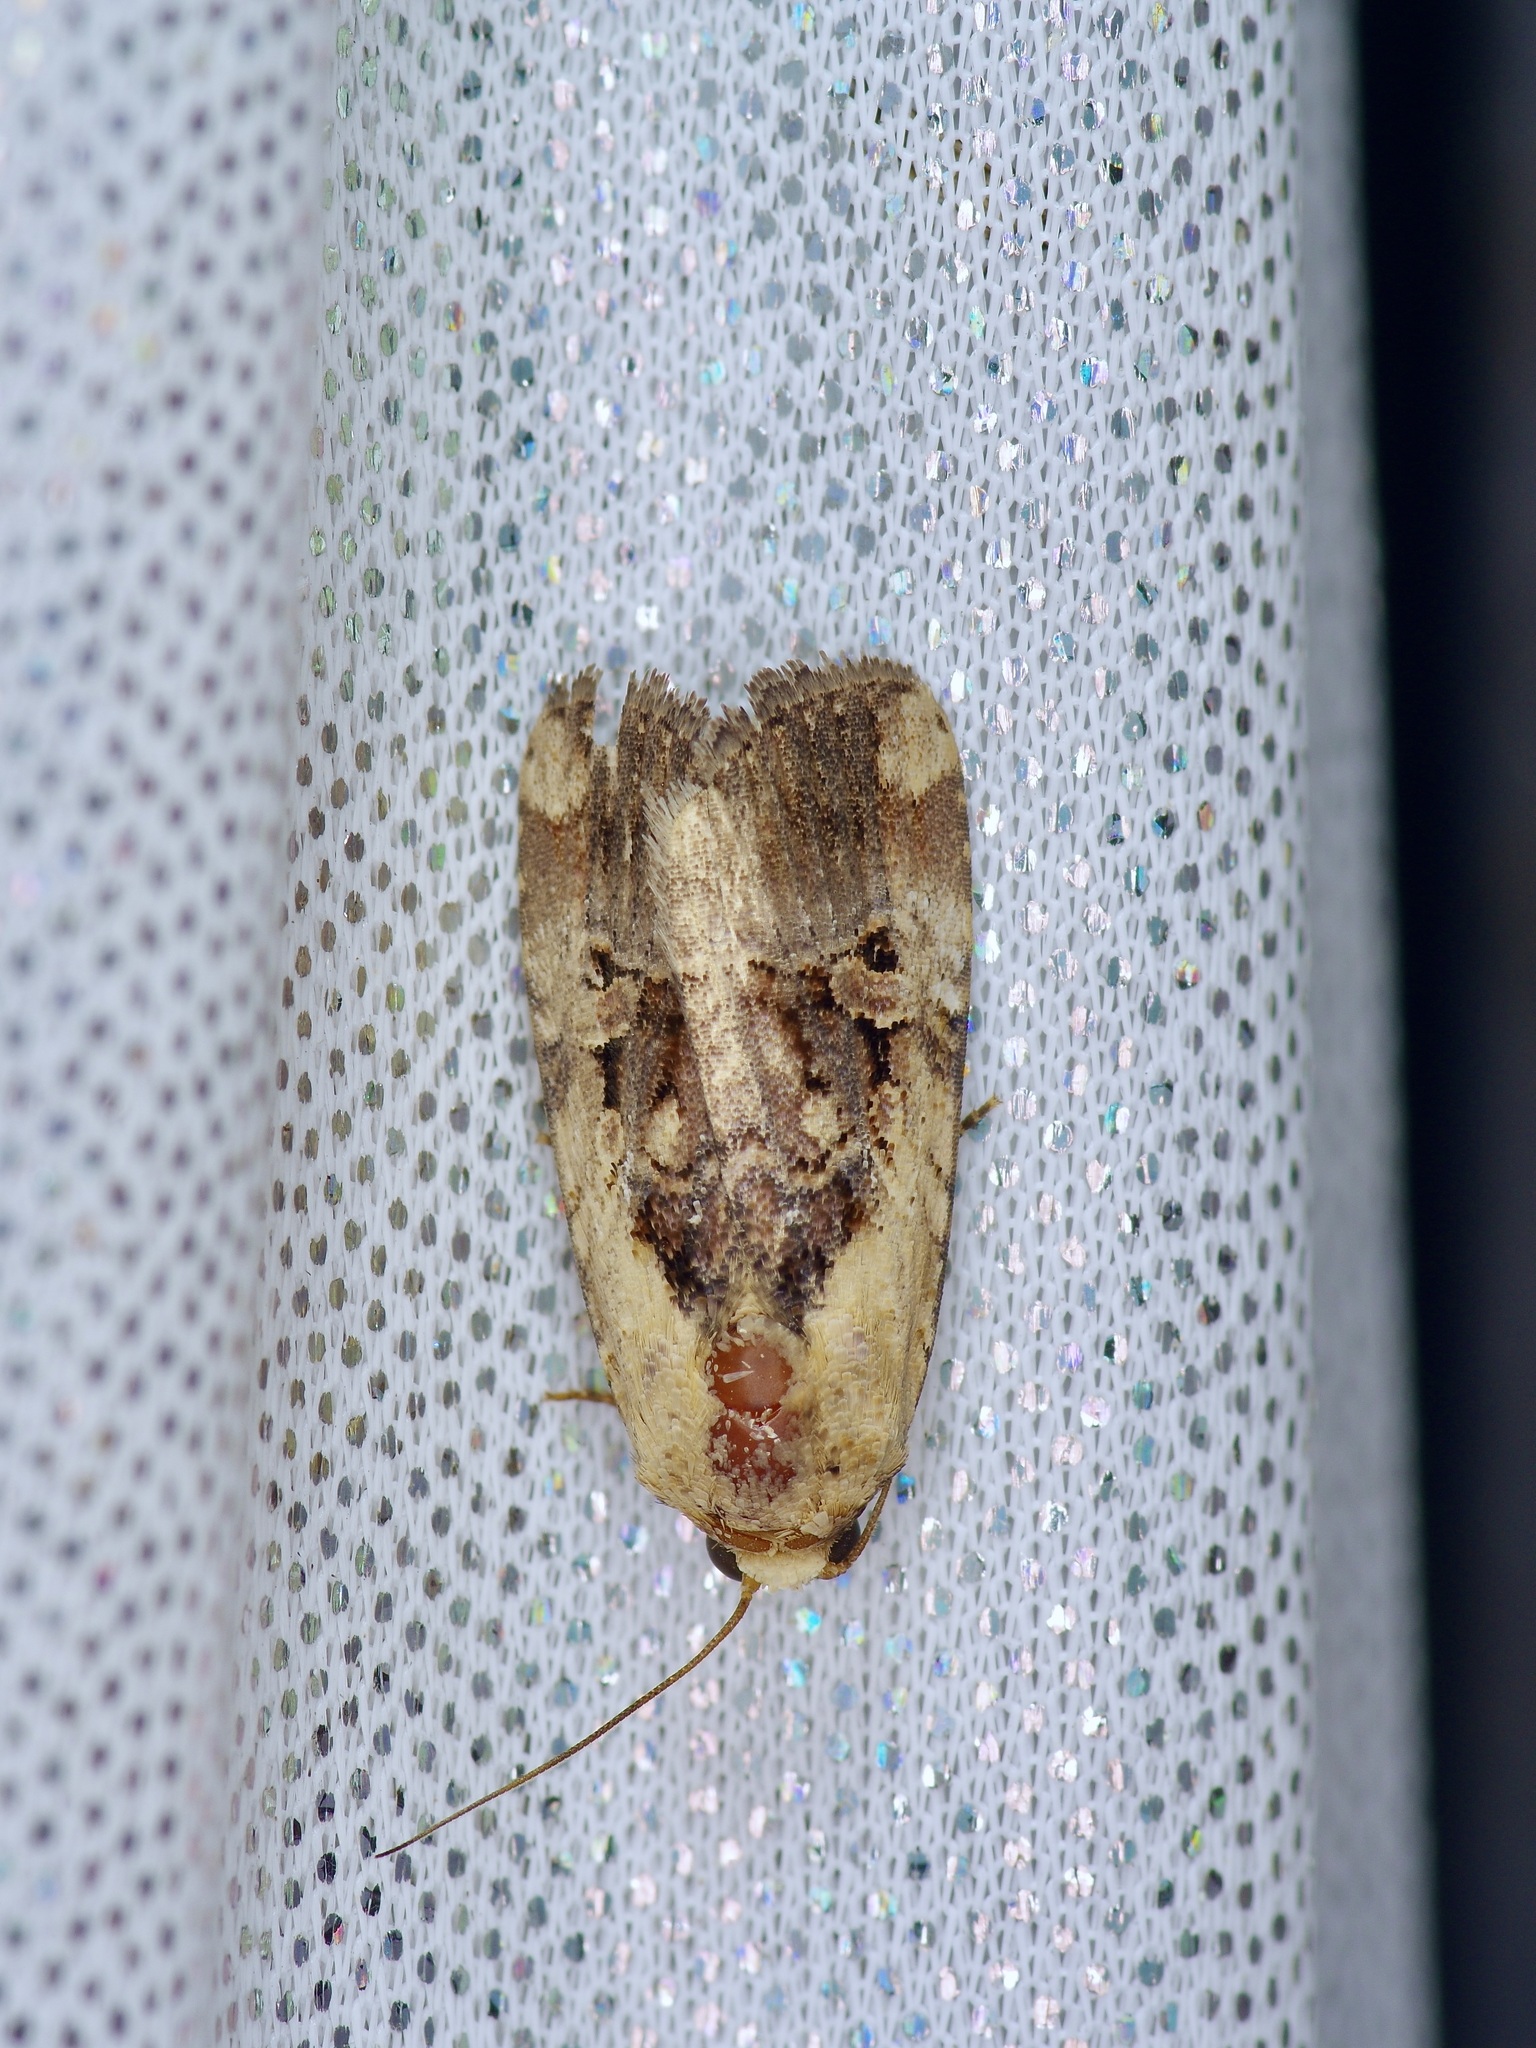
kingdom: Animalia
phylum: Arthropoda
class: Insecta
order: Lepidoptera
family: Noctuidae
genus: Elaphria
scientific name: Elaphria chalcedonia
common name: Chalcedony midget
